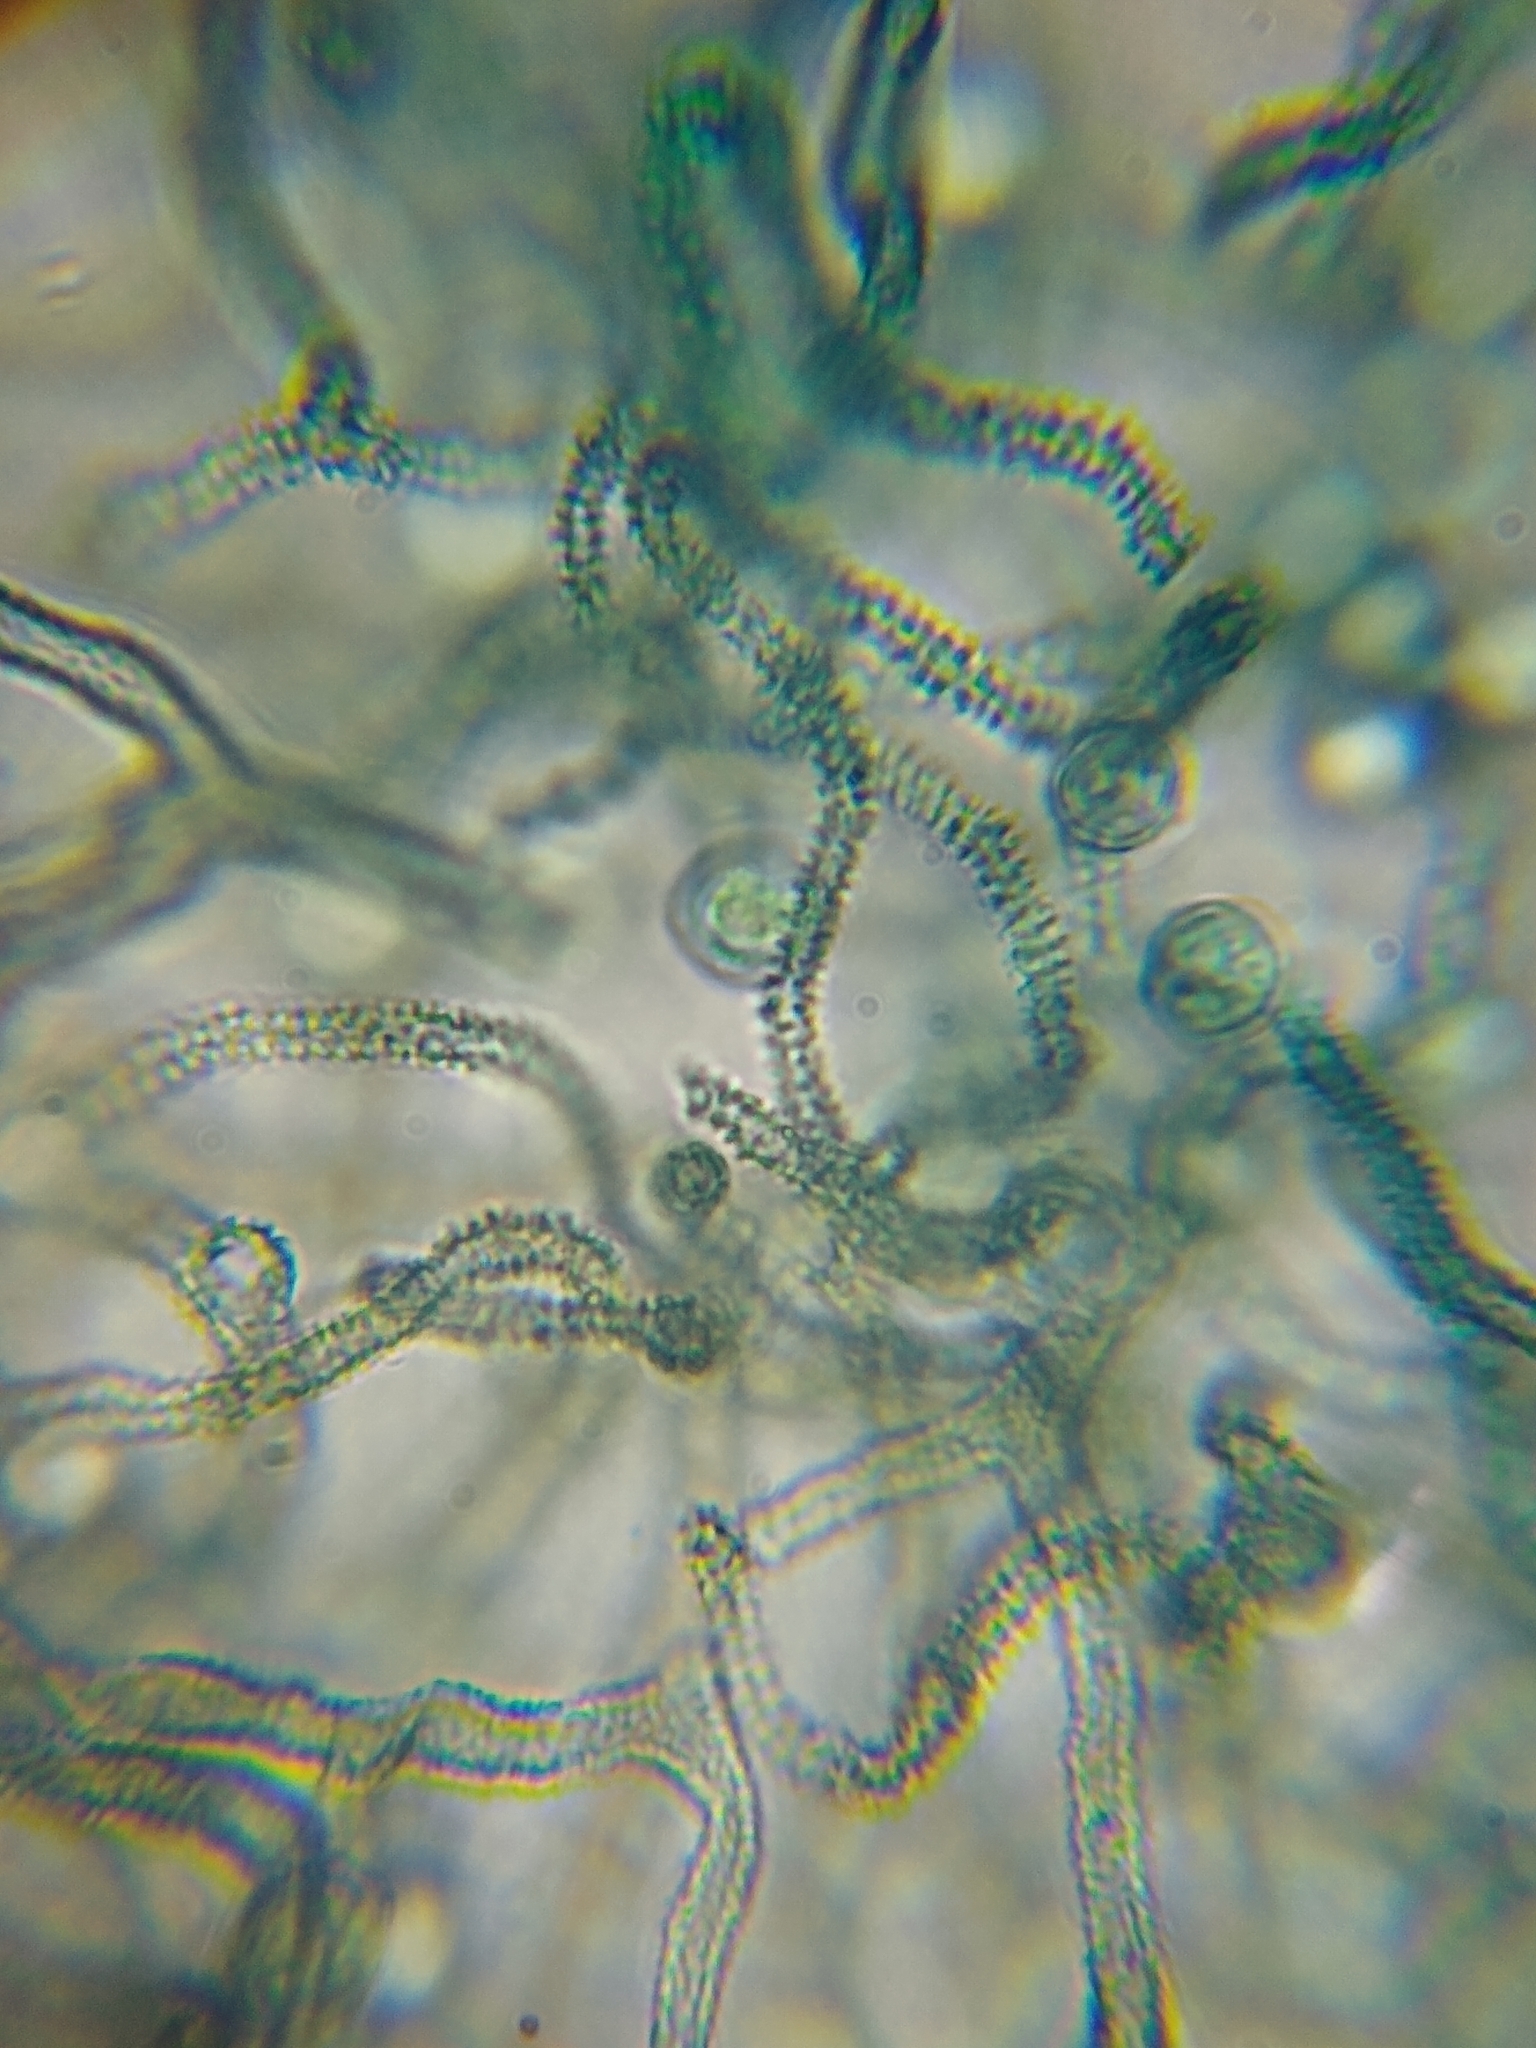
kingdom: Protozoa
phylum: Mycetozoa
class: Myxomycetes
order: Trichiales
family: Arcyriaceae
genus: Arcyria
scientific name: Arcyria cinerea
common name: White carnival candy slime mold
